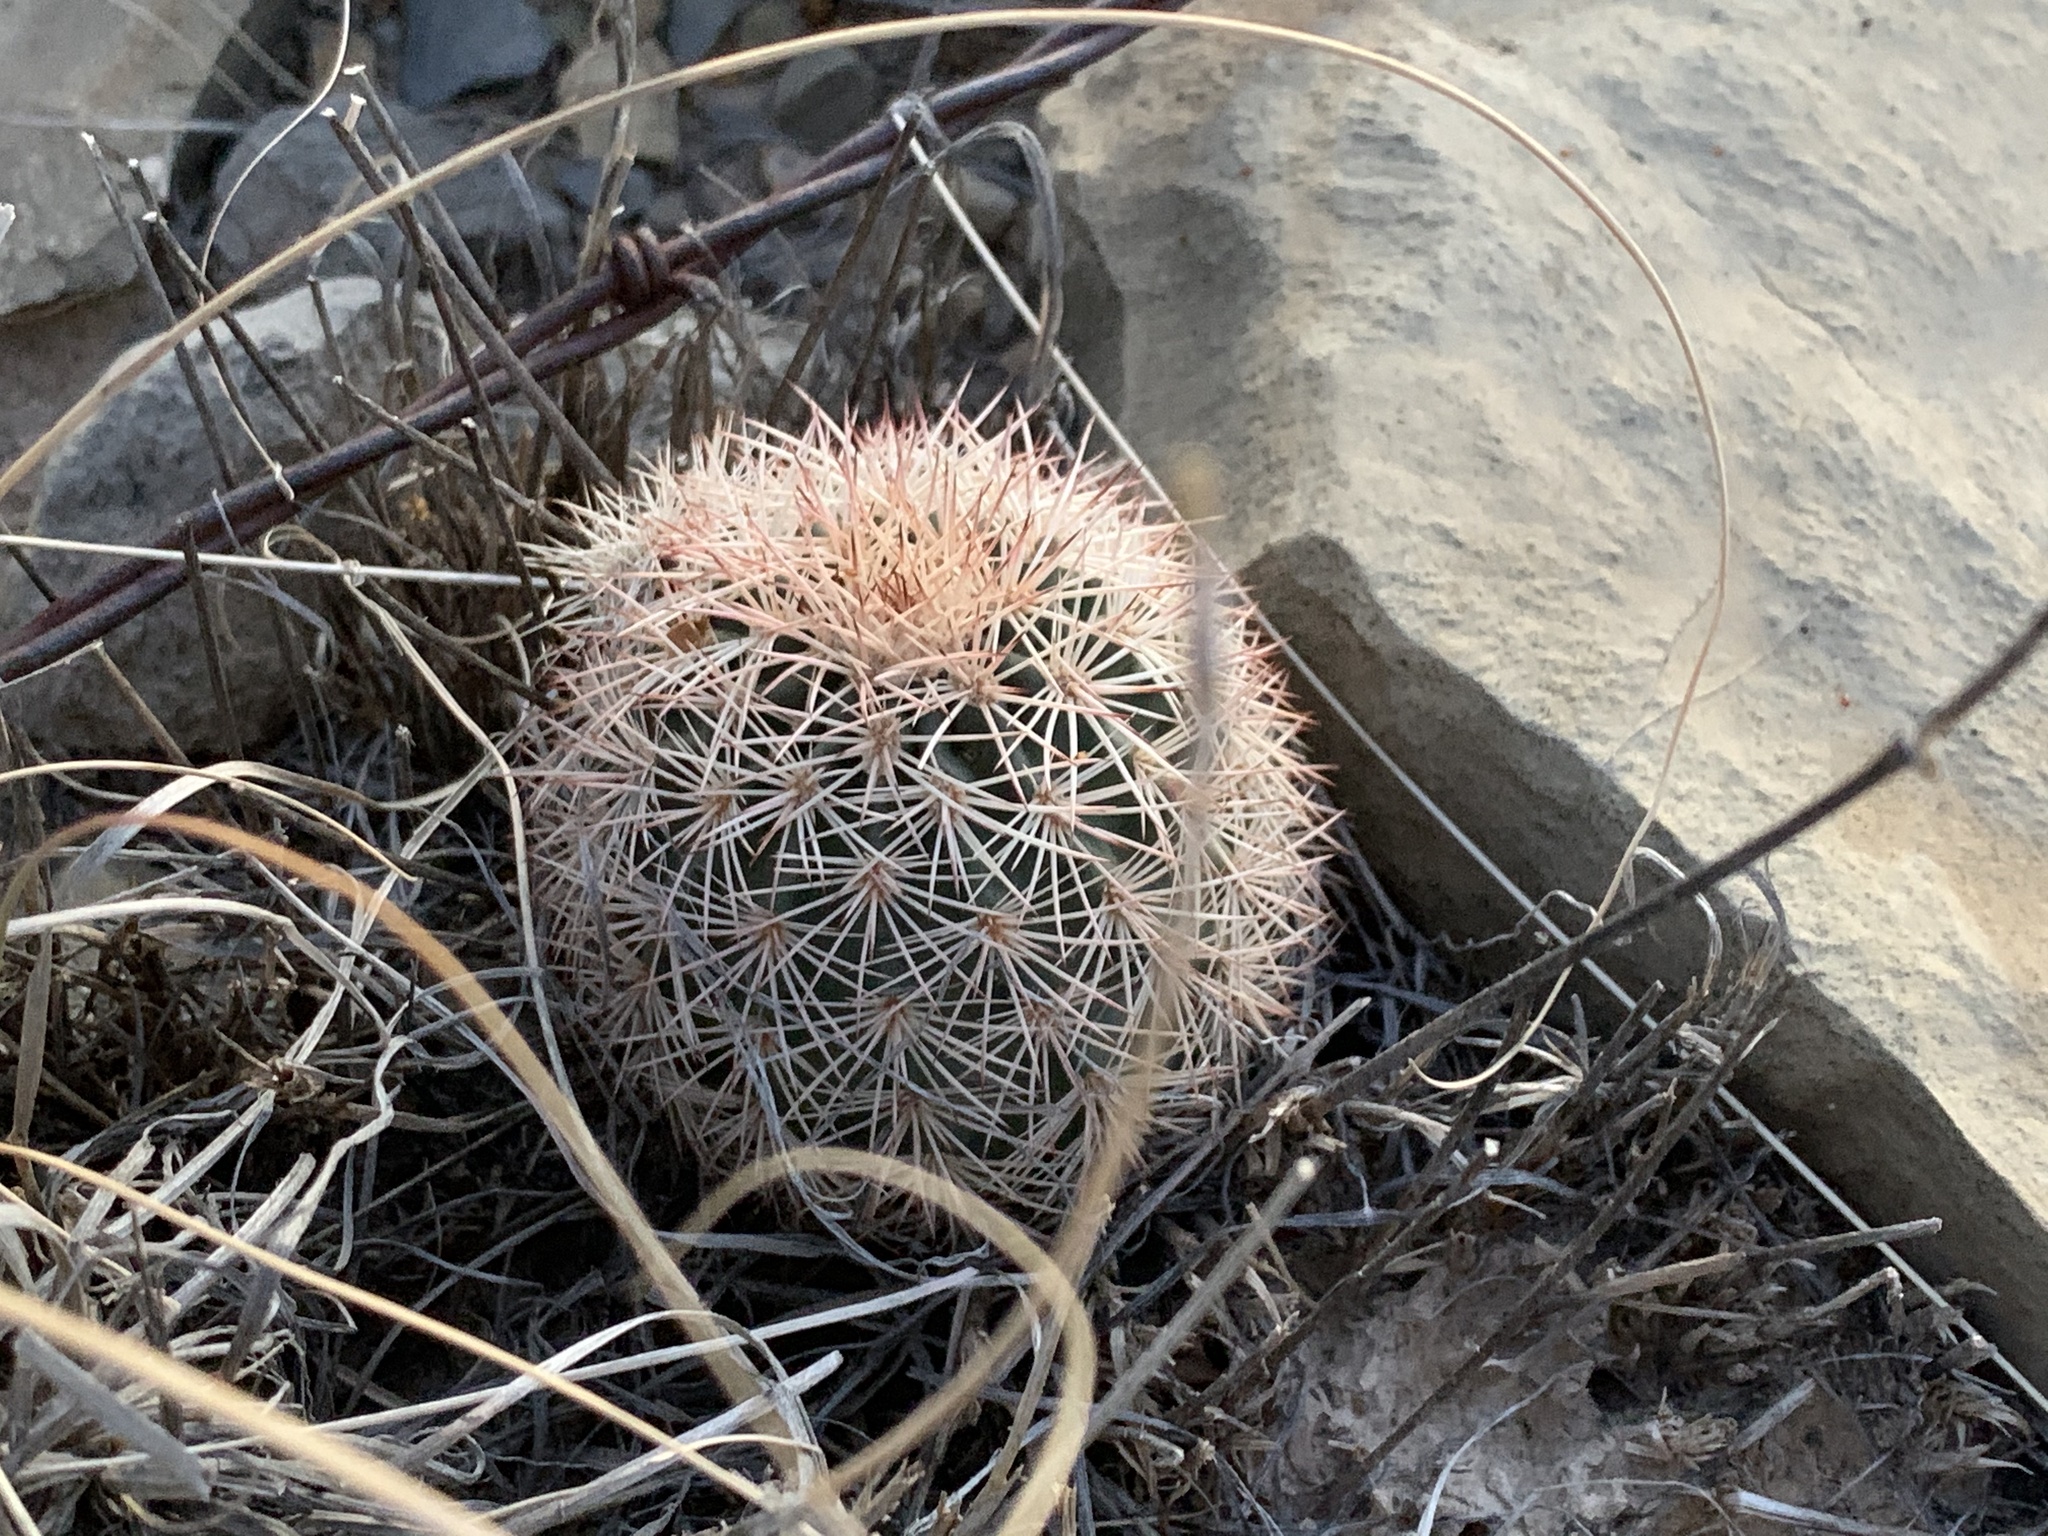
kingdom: Plantae
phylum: Tracheophyta
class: Magnoliopsida
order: Caryophyllales
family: Cactaceae
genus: Echinocereus
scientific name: Echinocereus dasyacanthus
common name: Spiny hedgehog cactus
